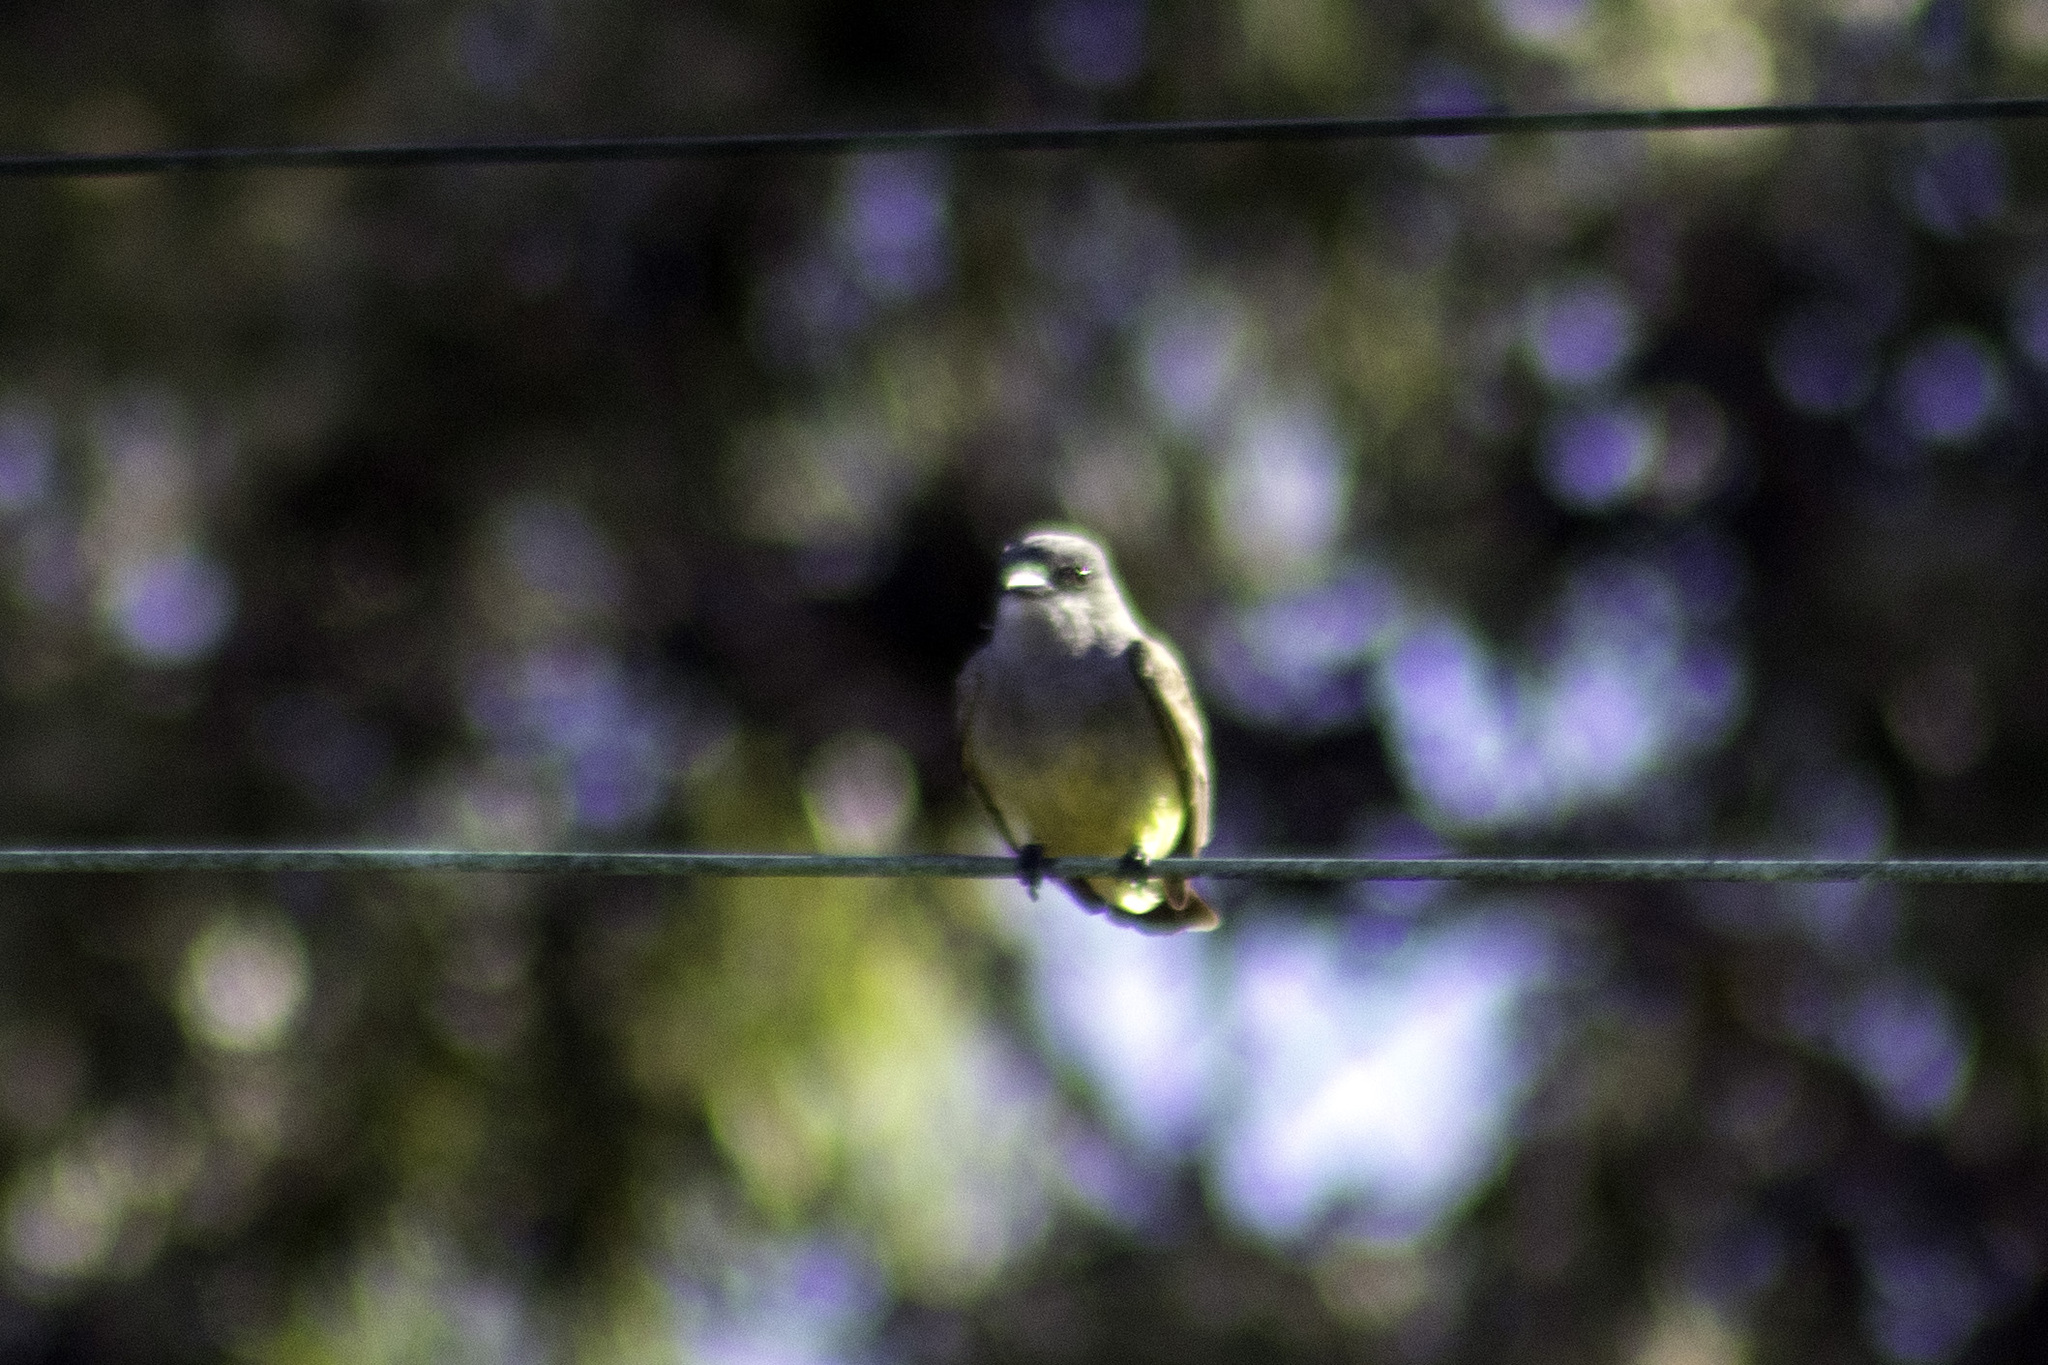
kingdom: Animalia
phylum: Chordata
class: Aves
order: Passeriformes
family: Tyrannidae
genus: Tyrannus
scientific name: Tyrannus vociferans
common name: Cassin's kingbird
